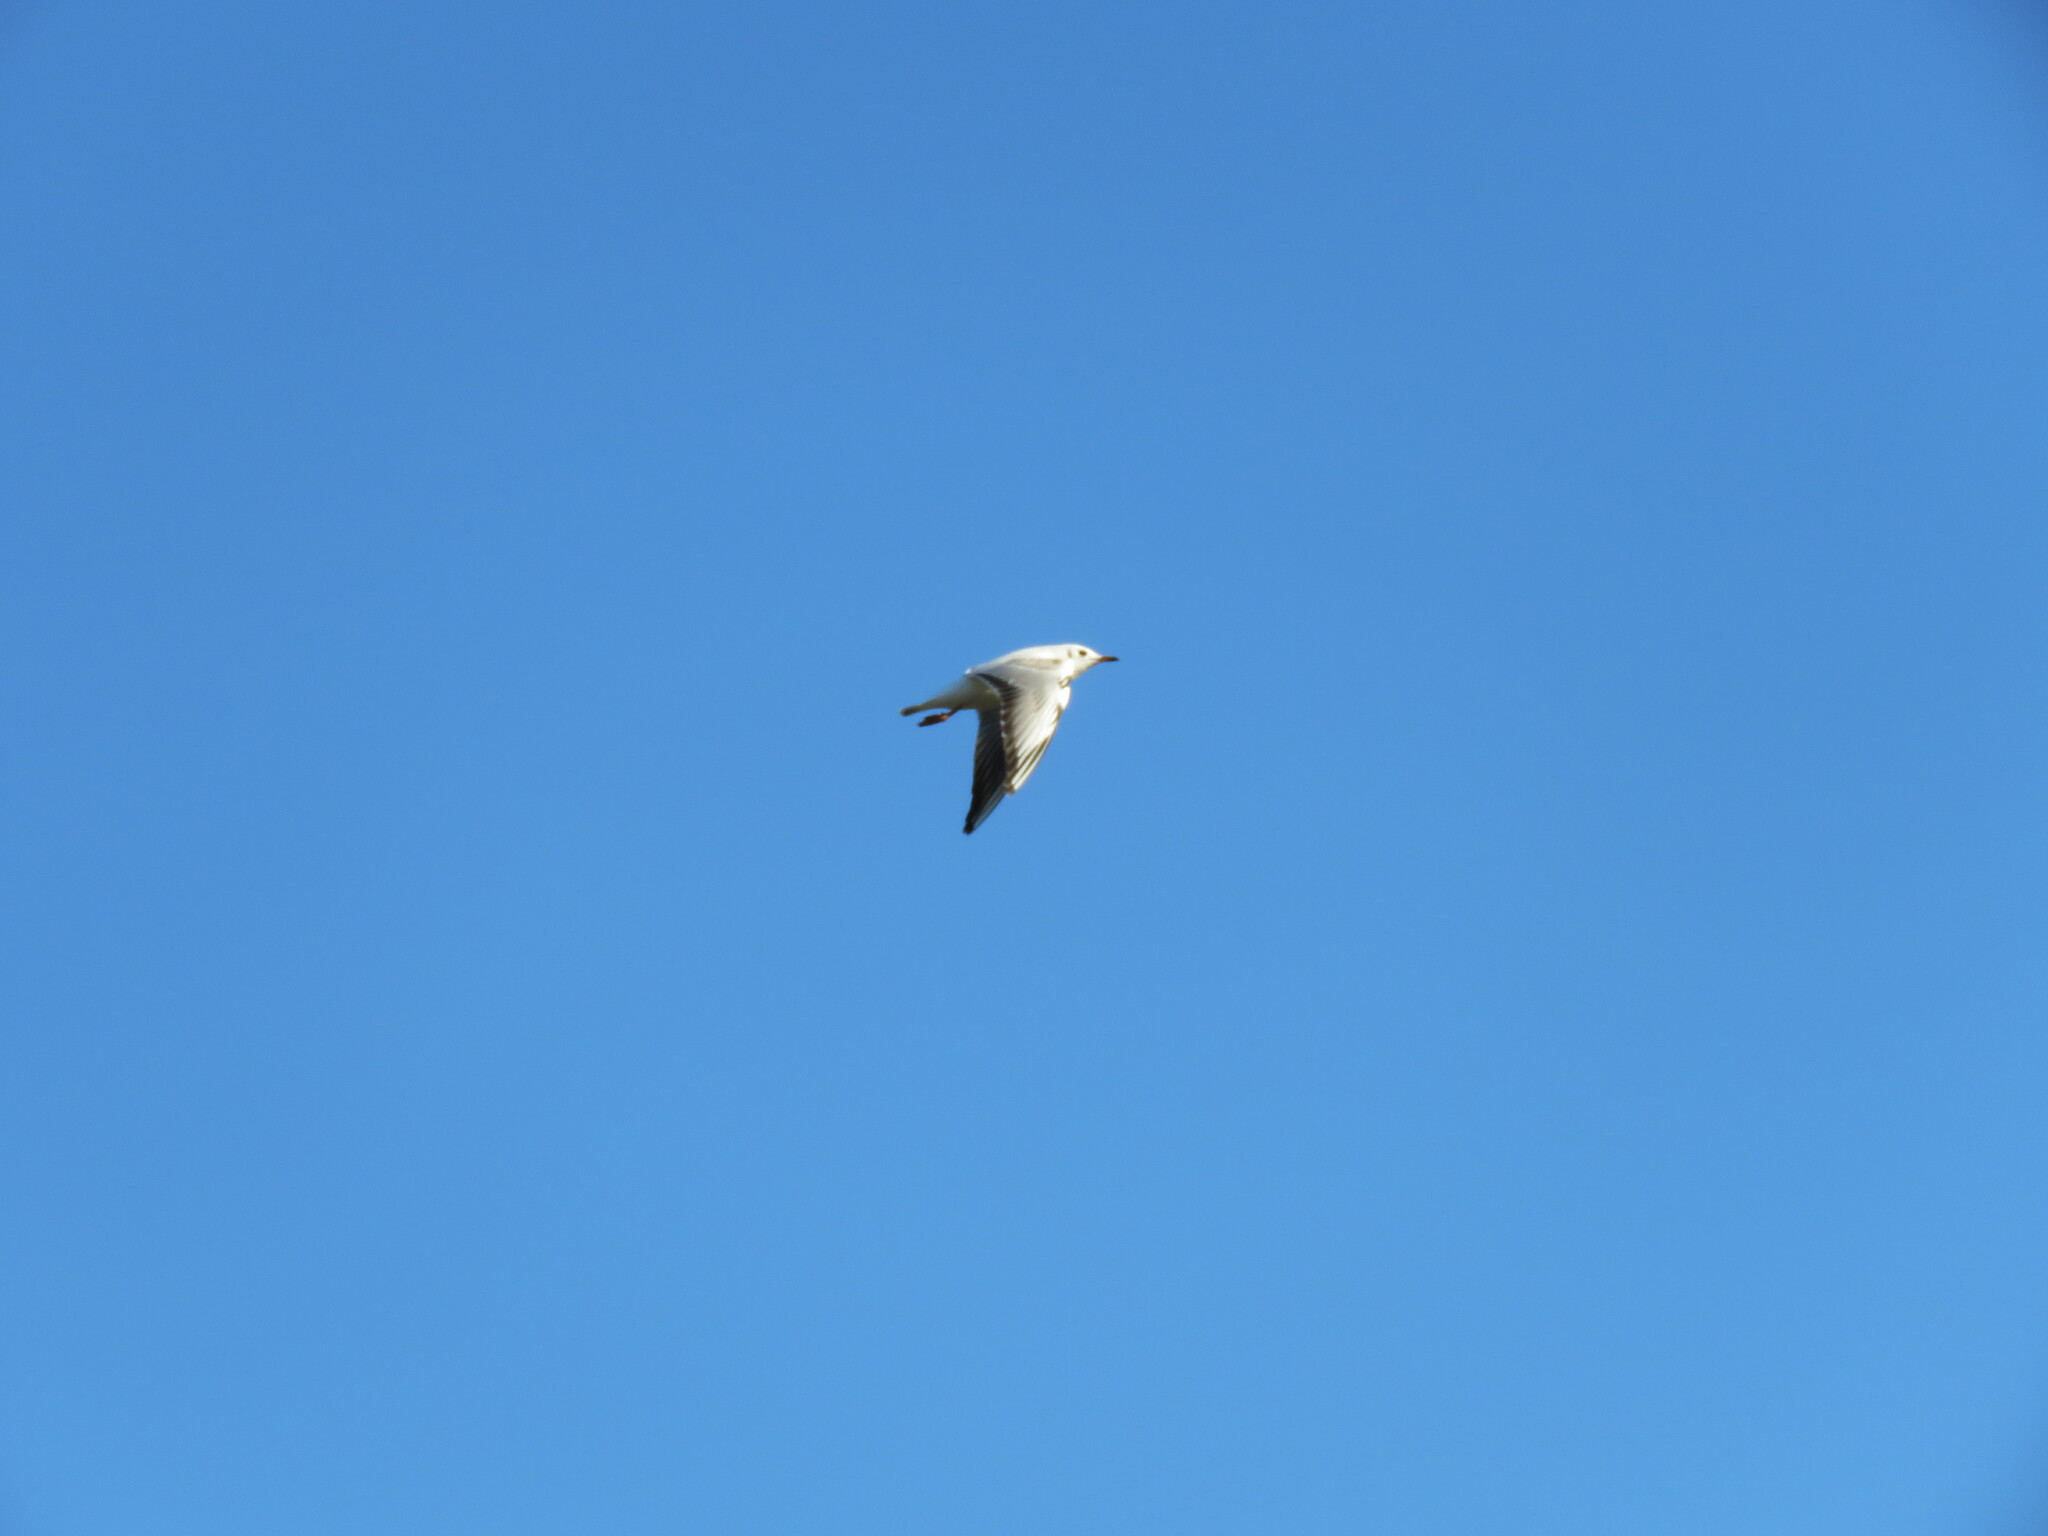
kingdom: Animalia
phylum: Chordata
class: Aves
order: Charadriiformes
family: Laridae
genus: Chroicocephalus
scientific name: Chroicocephalus ridibundus
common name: Black-headed gull
